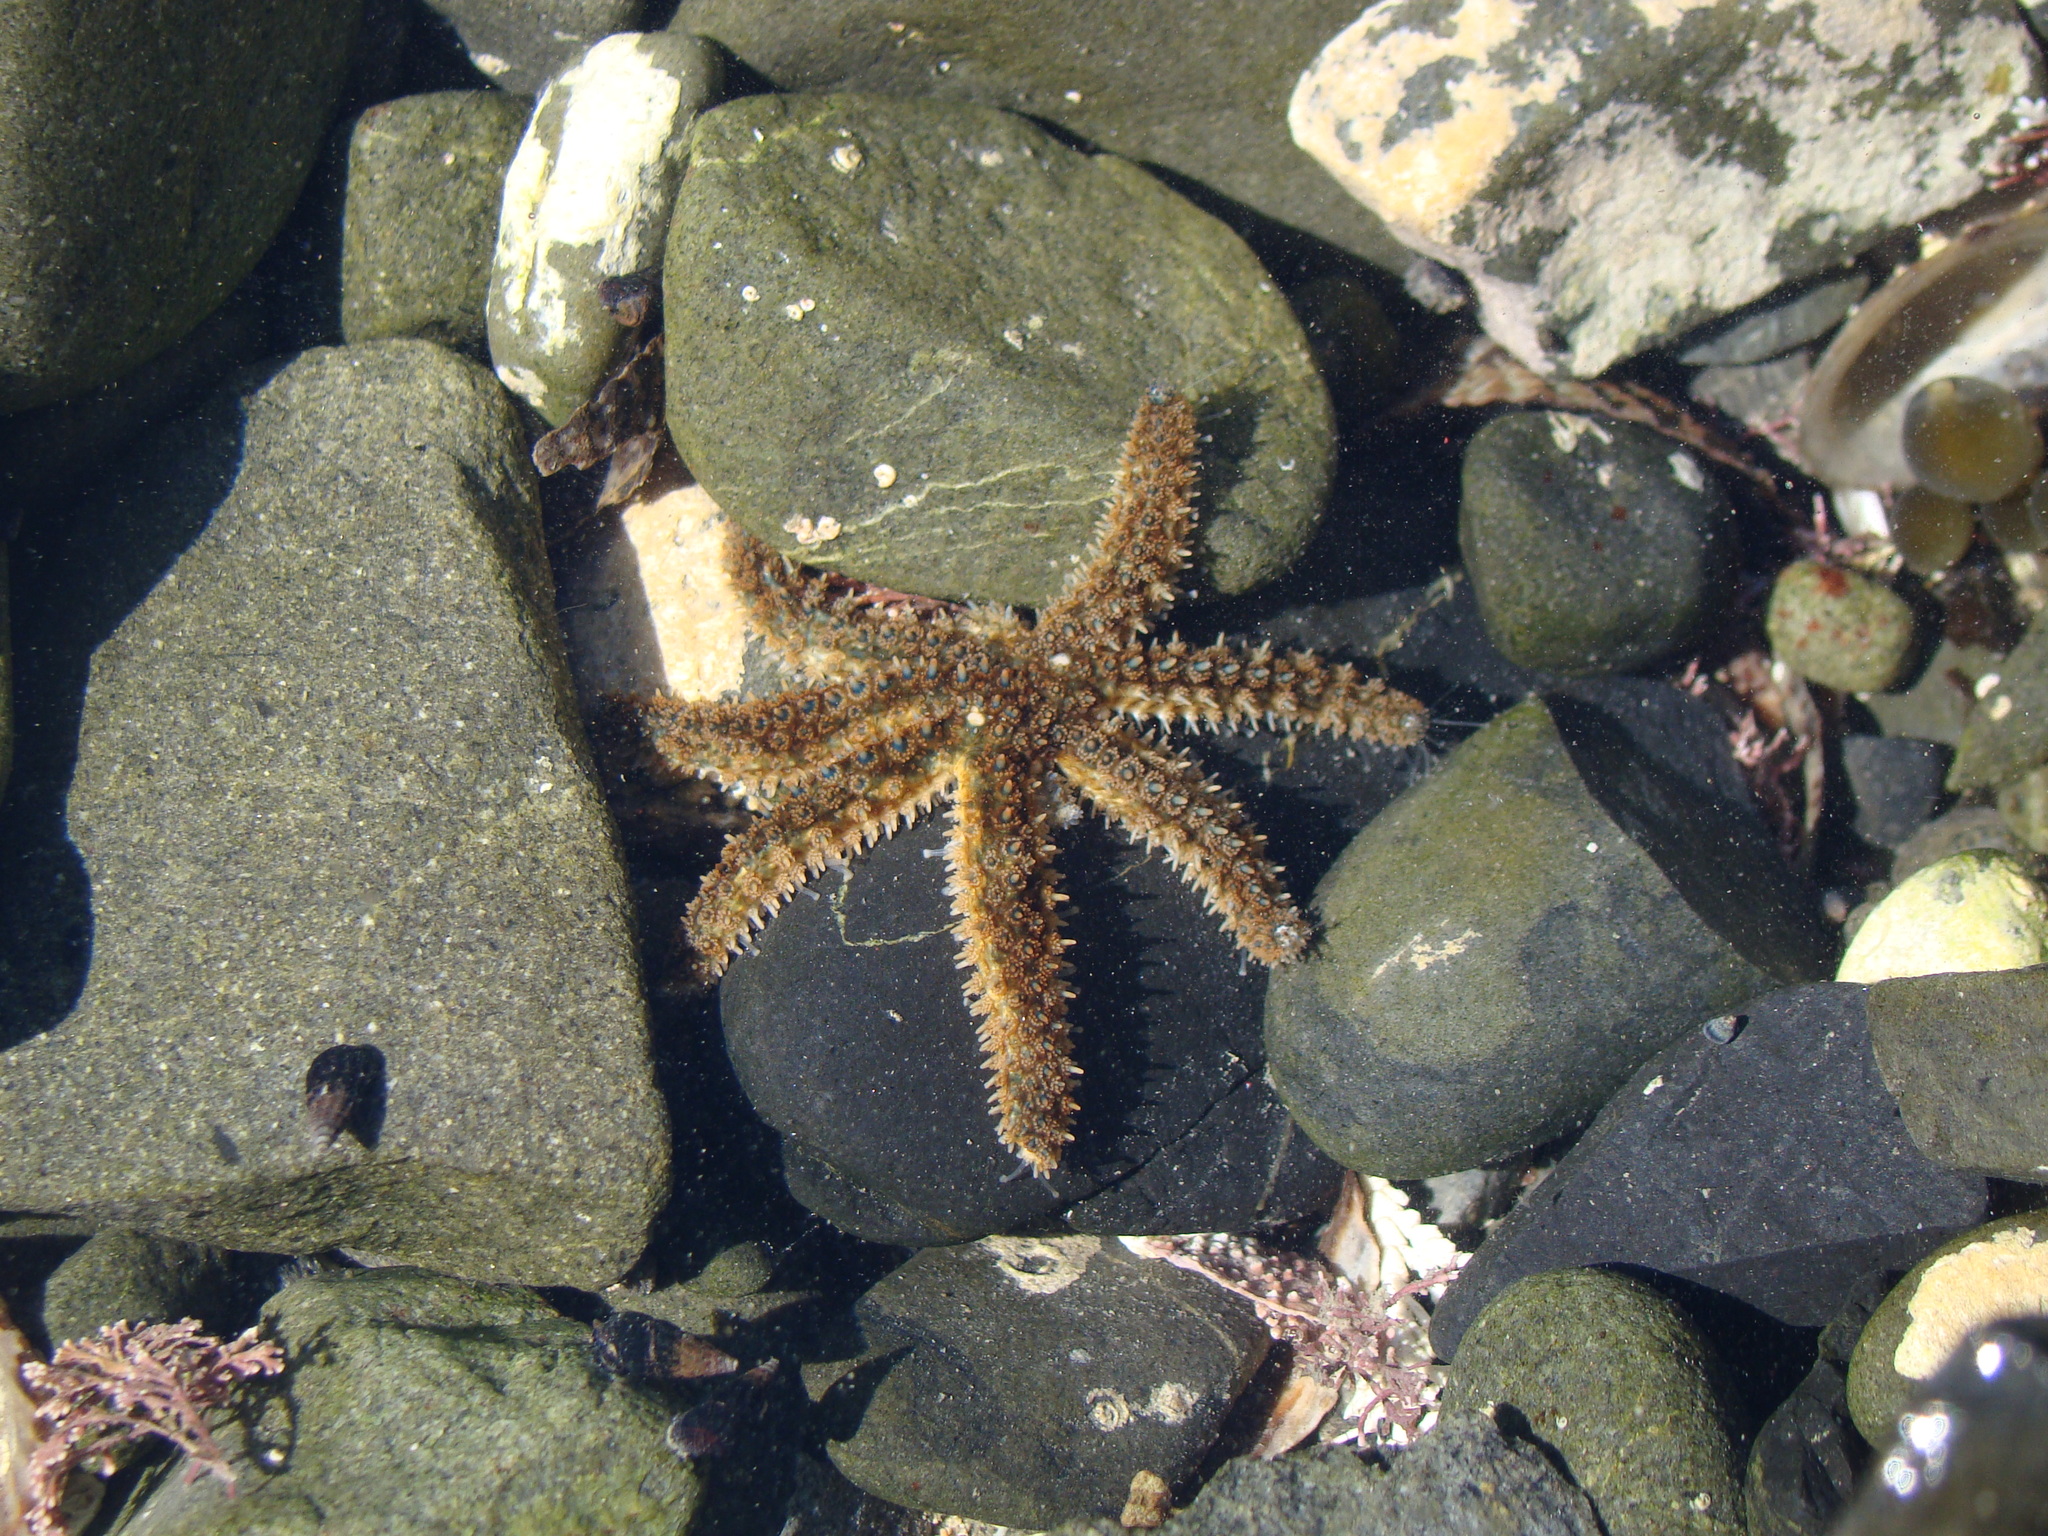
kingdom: Animalia
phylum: Echinodermata
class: Asteroidea
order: Forcipulatida
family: Asteriidae
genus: Coscinasterias
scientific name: Coscinasterias muricata
